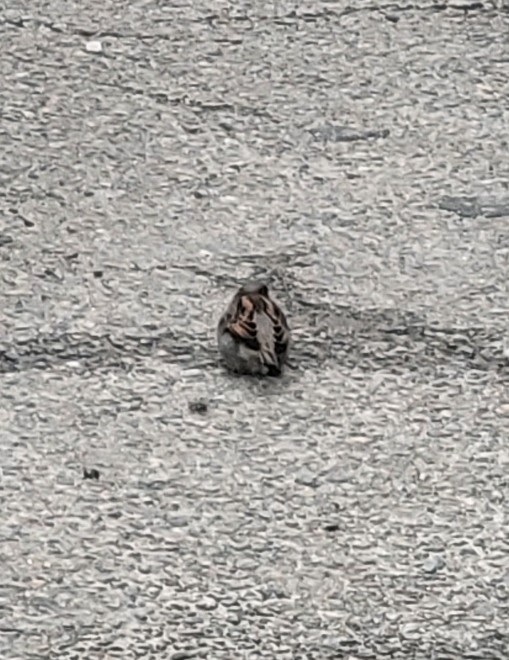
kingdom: Animalia
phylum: Chordata
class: Aves
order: Passeriformes
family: Passeridae
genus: Passer
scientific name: Passer domesticus
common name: House sparrow
